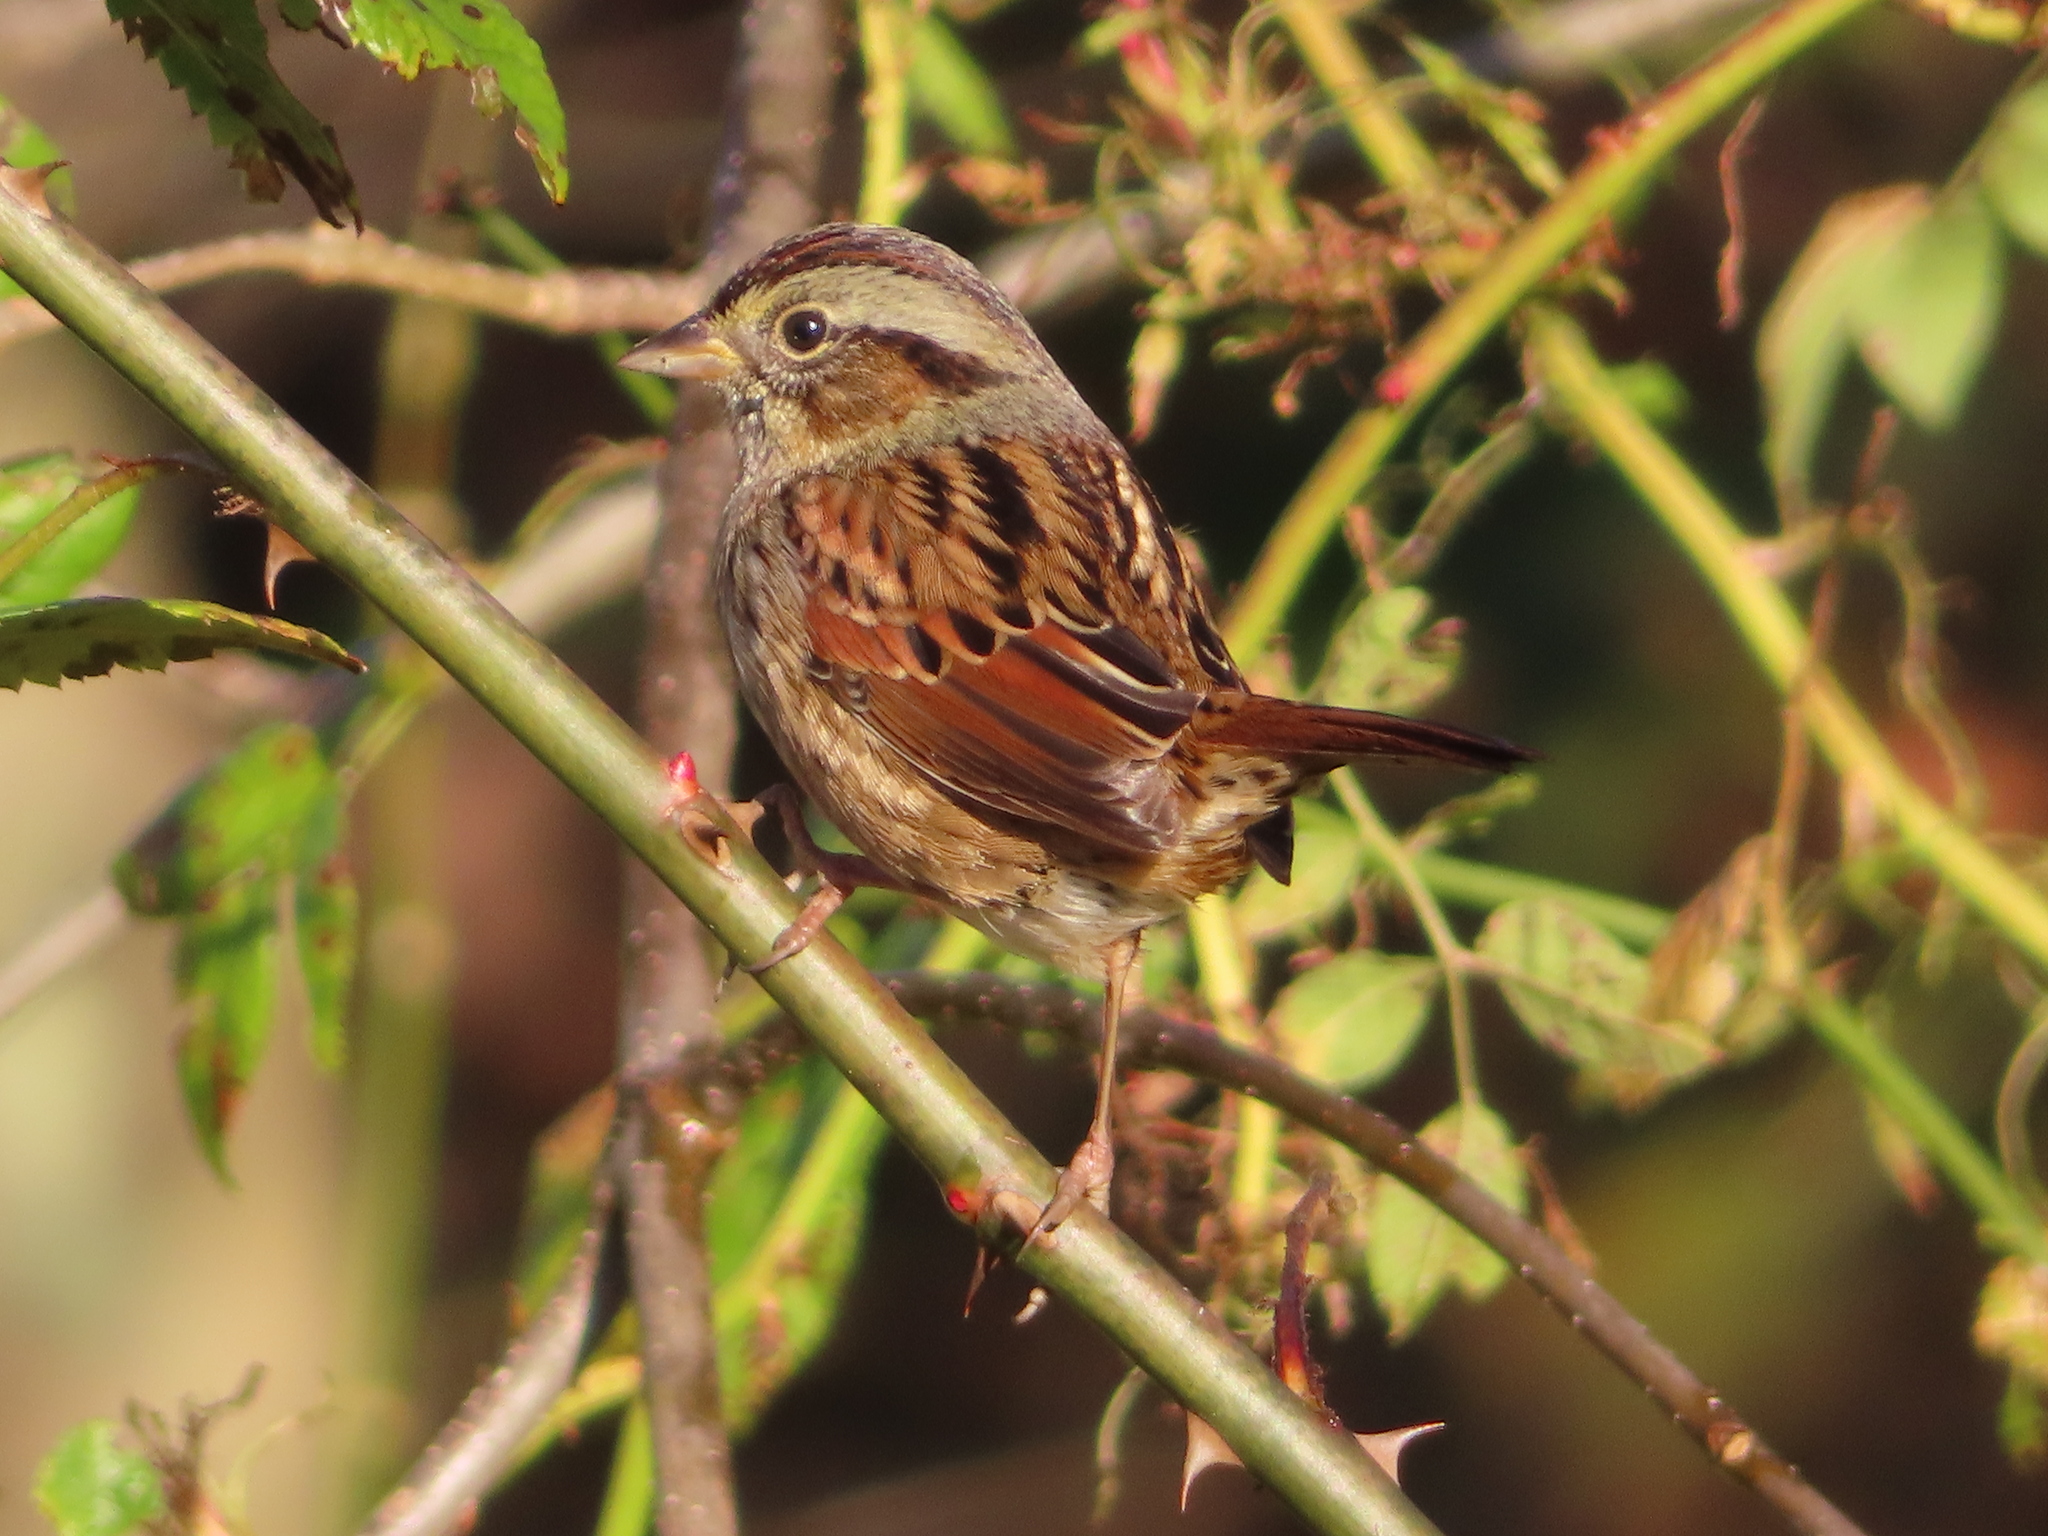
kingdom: Animalia
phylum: Chordata
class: Aves
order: Passeriformes
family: Passerellidae
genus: Melospiza
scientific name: Melospiza georgiana
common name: Swamp sparrow
